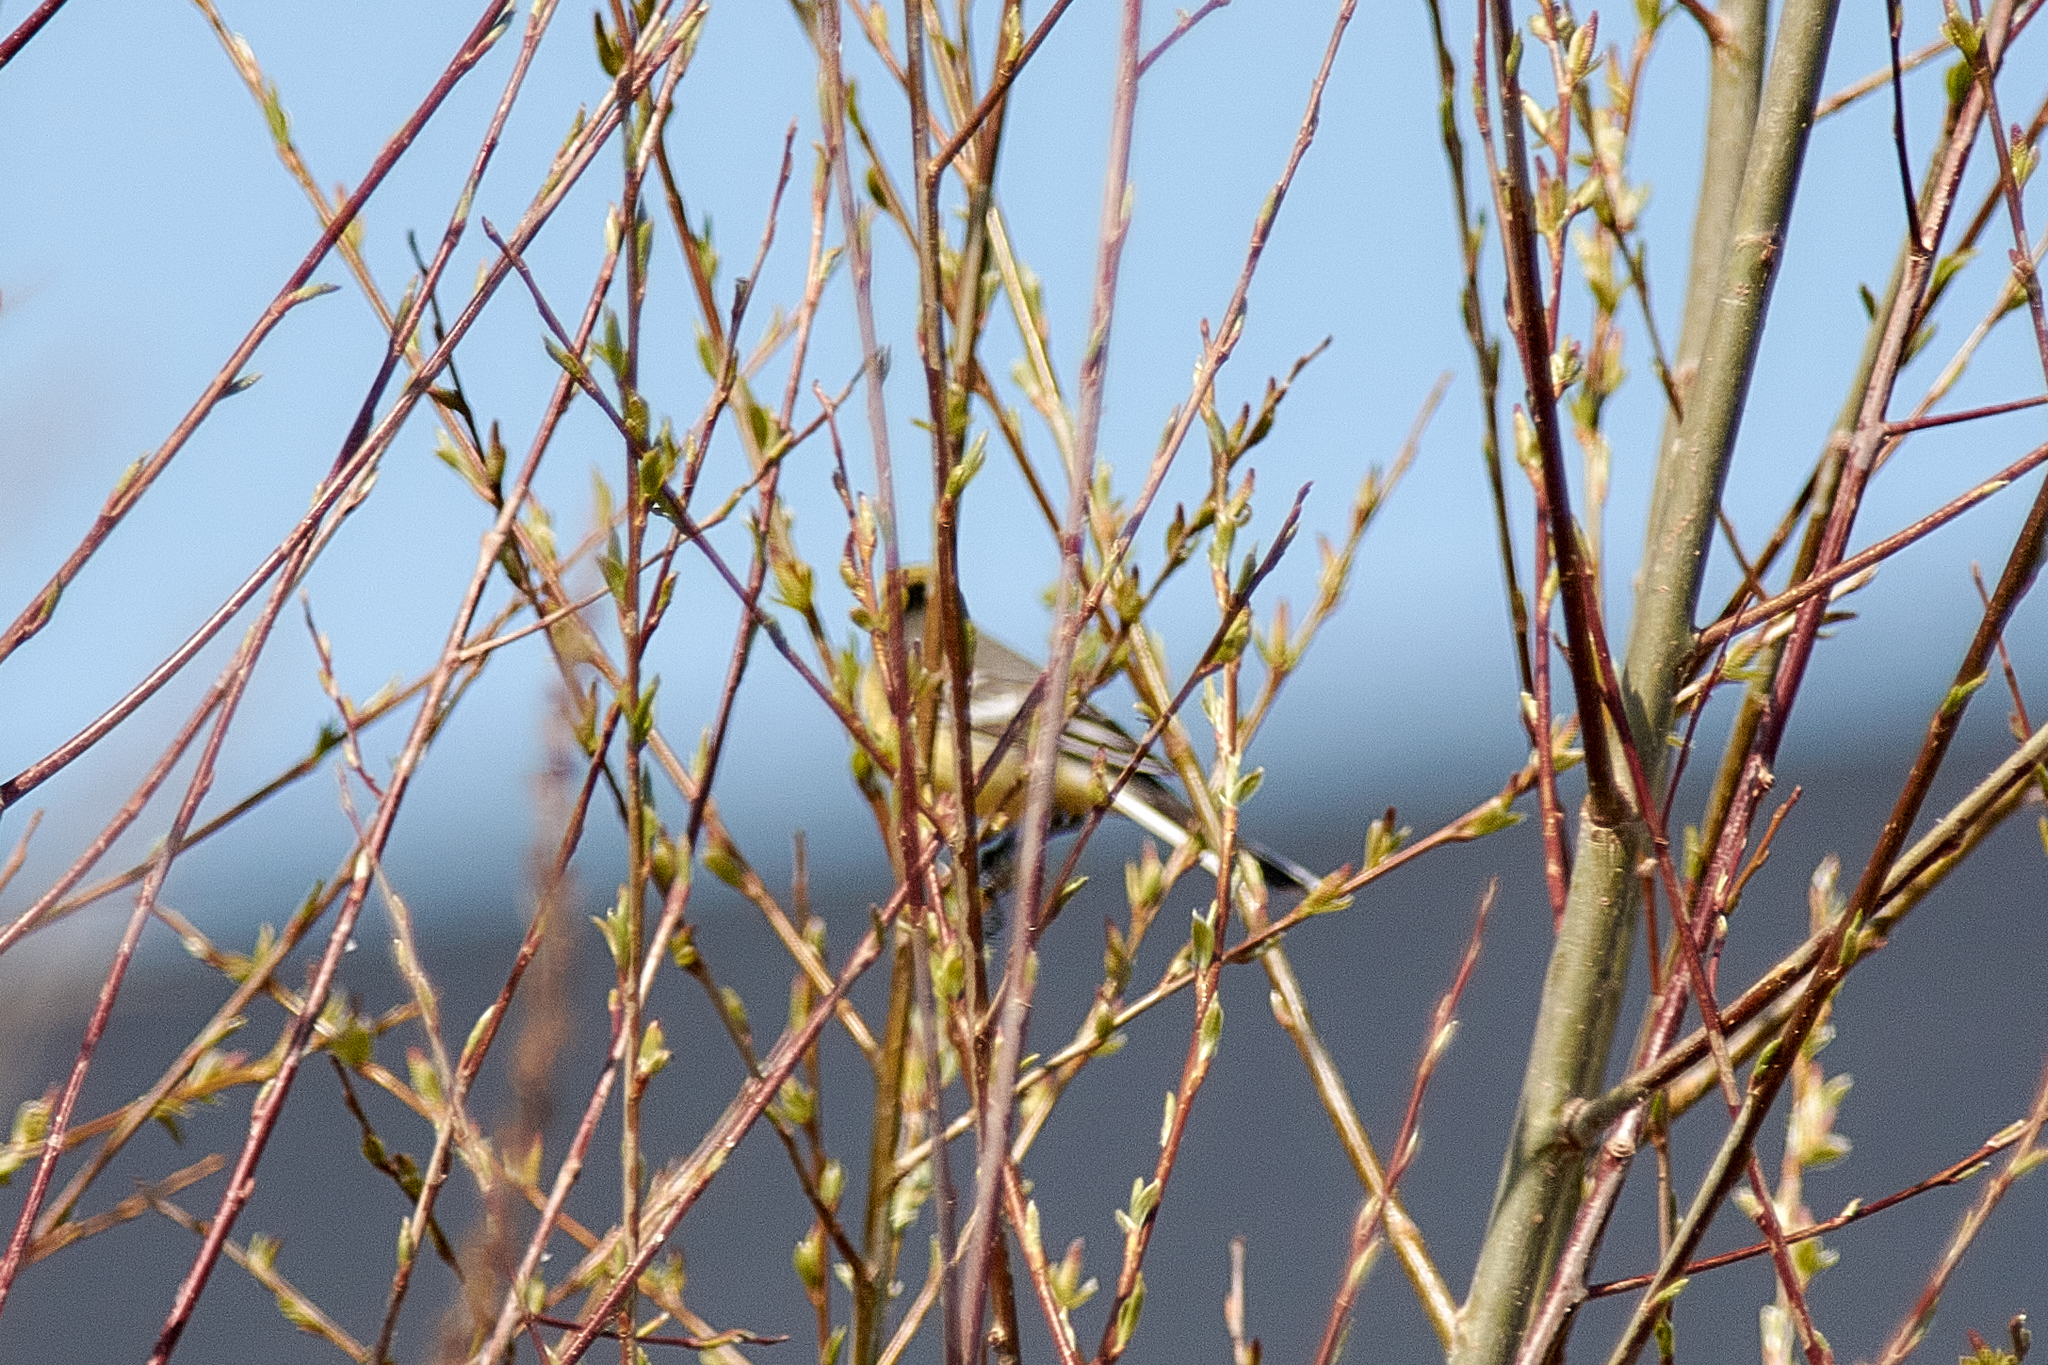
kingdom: Animalia
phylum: Chordata
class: Aves
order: Passeriformes
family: Motacillidae
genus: Motacilla
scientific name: Motacilla citreola
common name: Citrine wagtail
